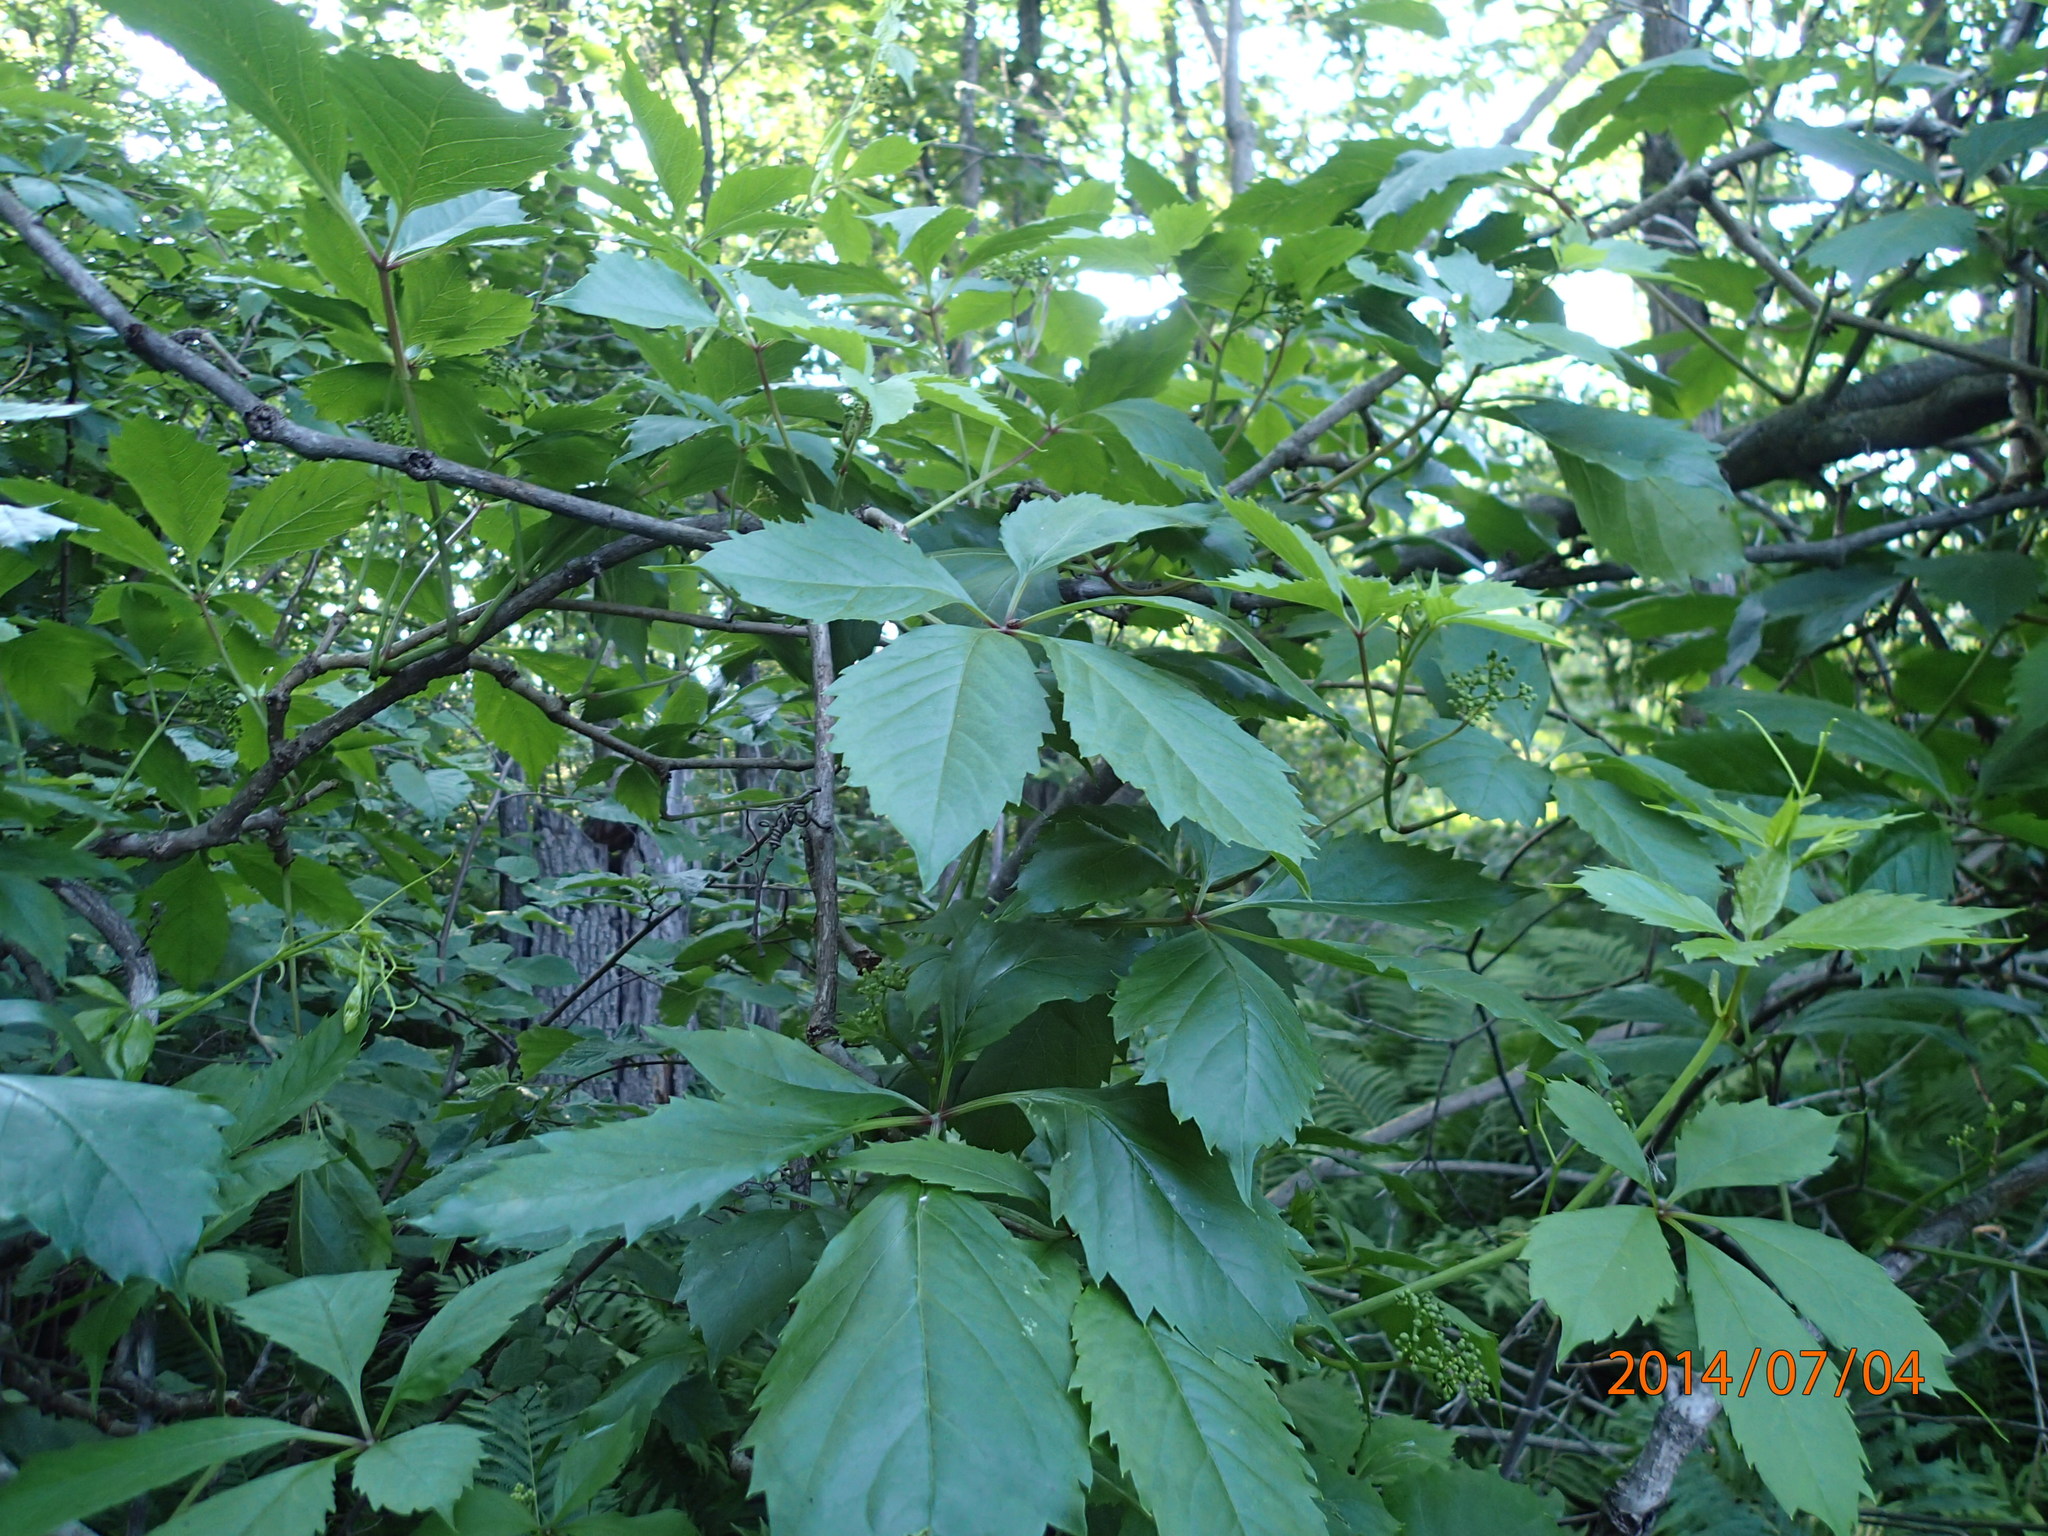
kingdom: Plantae
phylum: Tracheophyta
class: Magnoliopsida
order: Vitales
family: Vitaceae
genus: Parthenocissus
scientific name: Parthenocissus inserta
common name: False virginia-creeper
